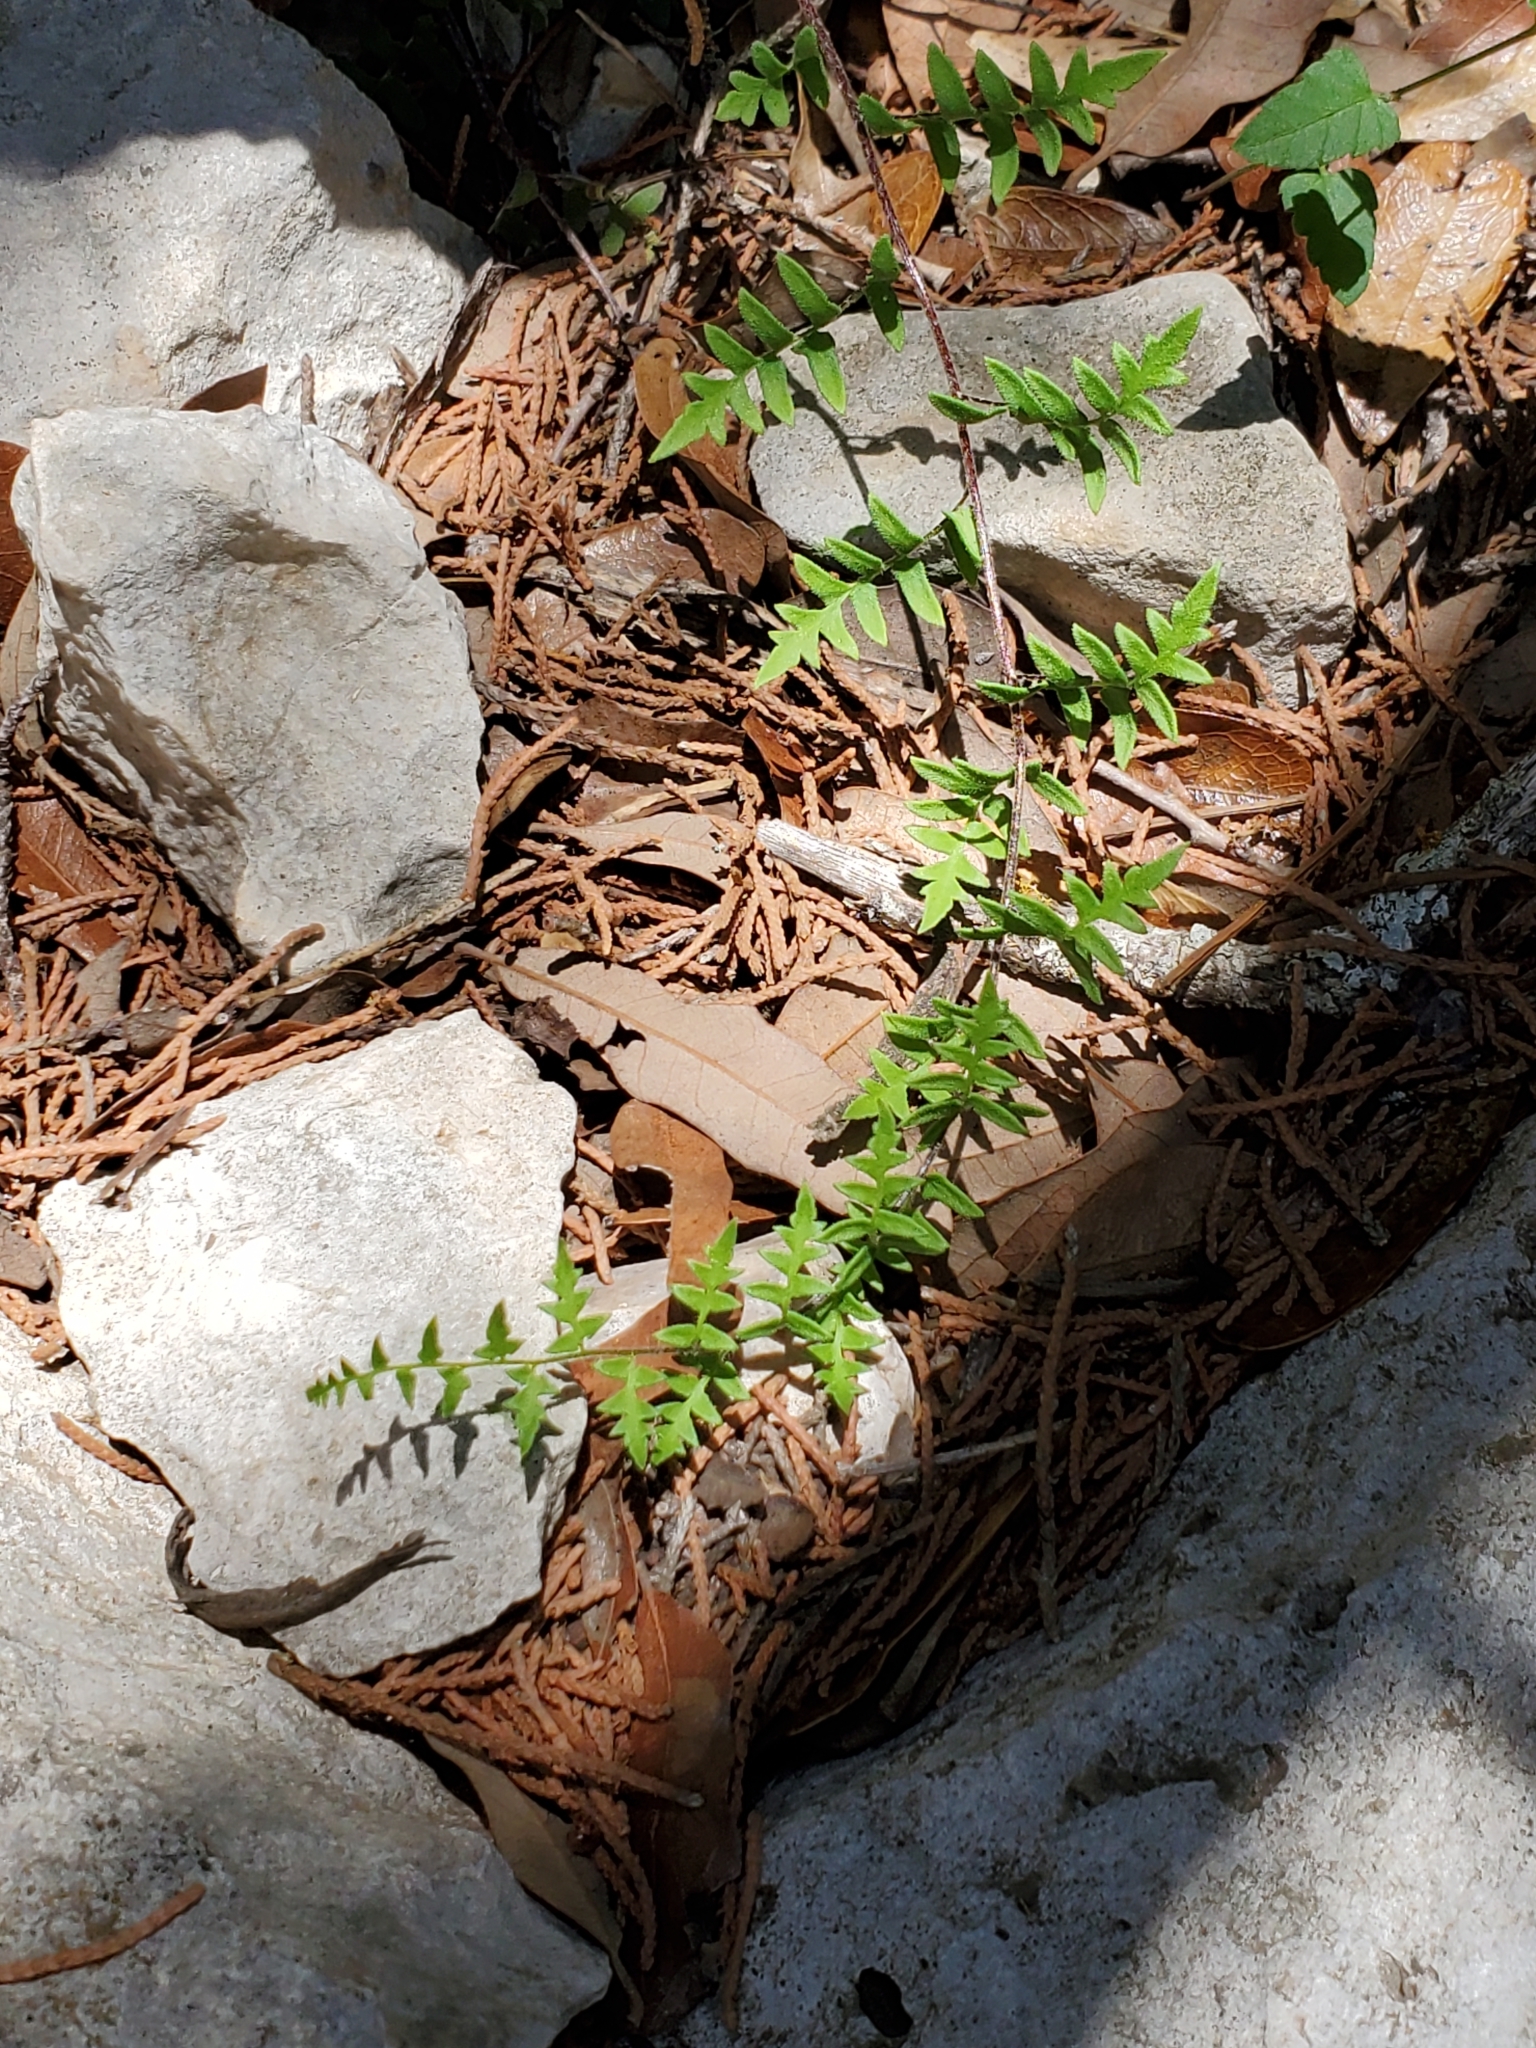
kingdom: Plantae
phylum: Tracheophyta
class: Polypodiopsida
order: Polypodiales
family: Pteridaceae
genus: Myriopteris
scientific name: Myriopteris scabra
